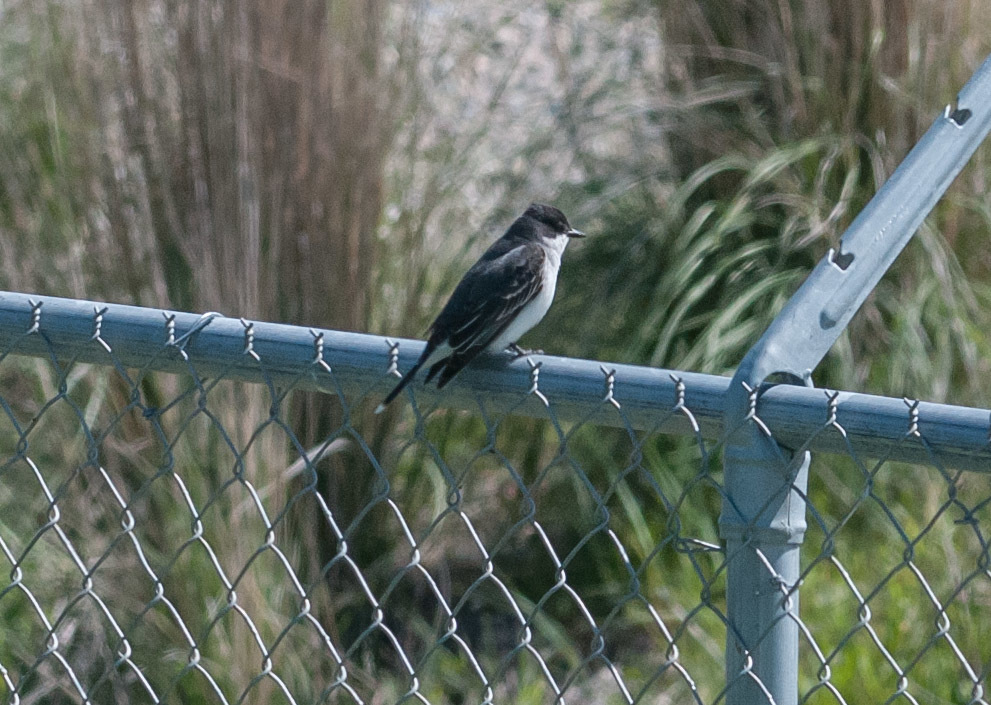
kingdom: Animalia
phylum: Chordata
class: Aves
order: Passeriformes
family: Tyrannidae
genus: Tyrannus
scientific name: Tyrannus tyrannus
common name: Eastern kingbird
